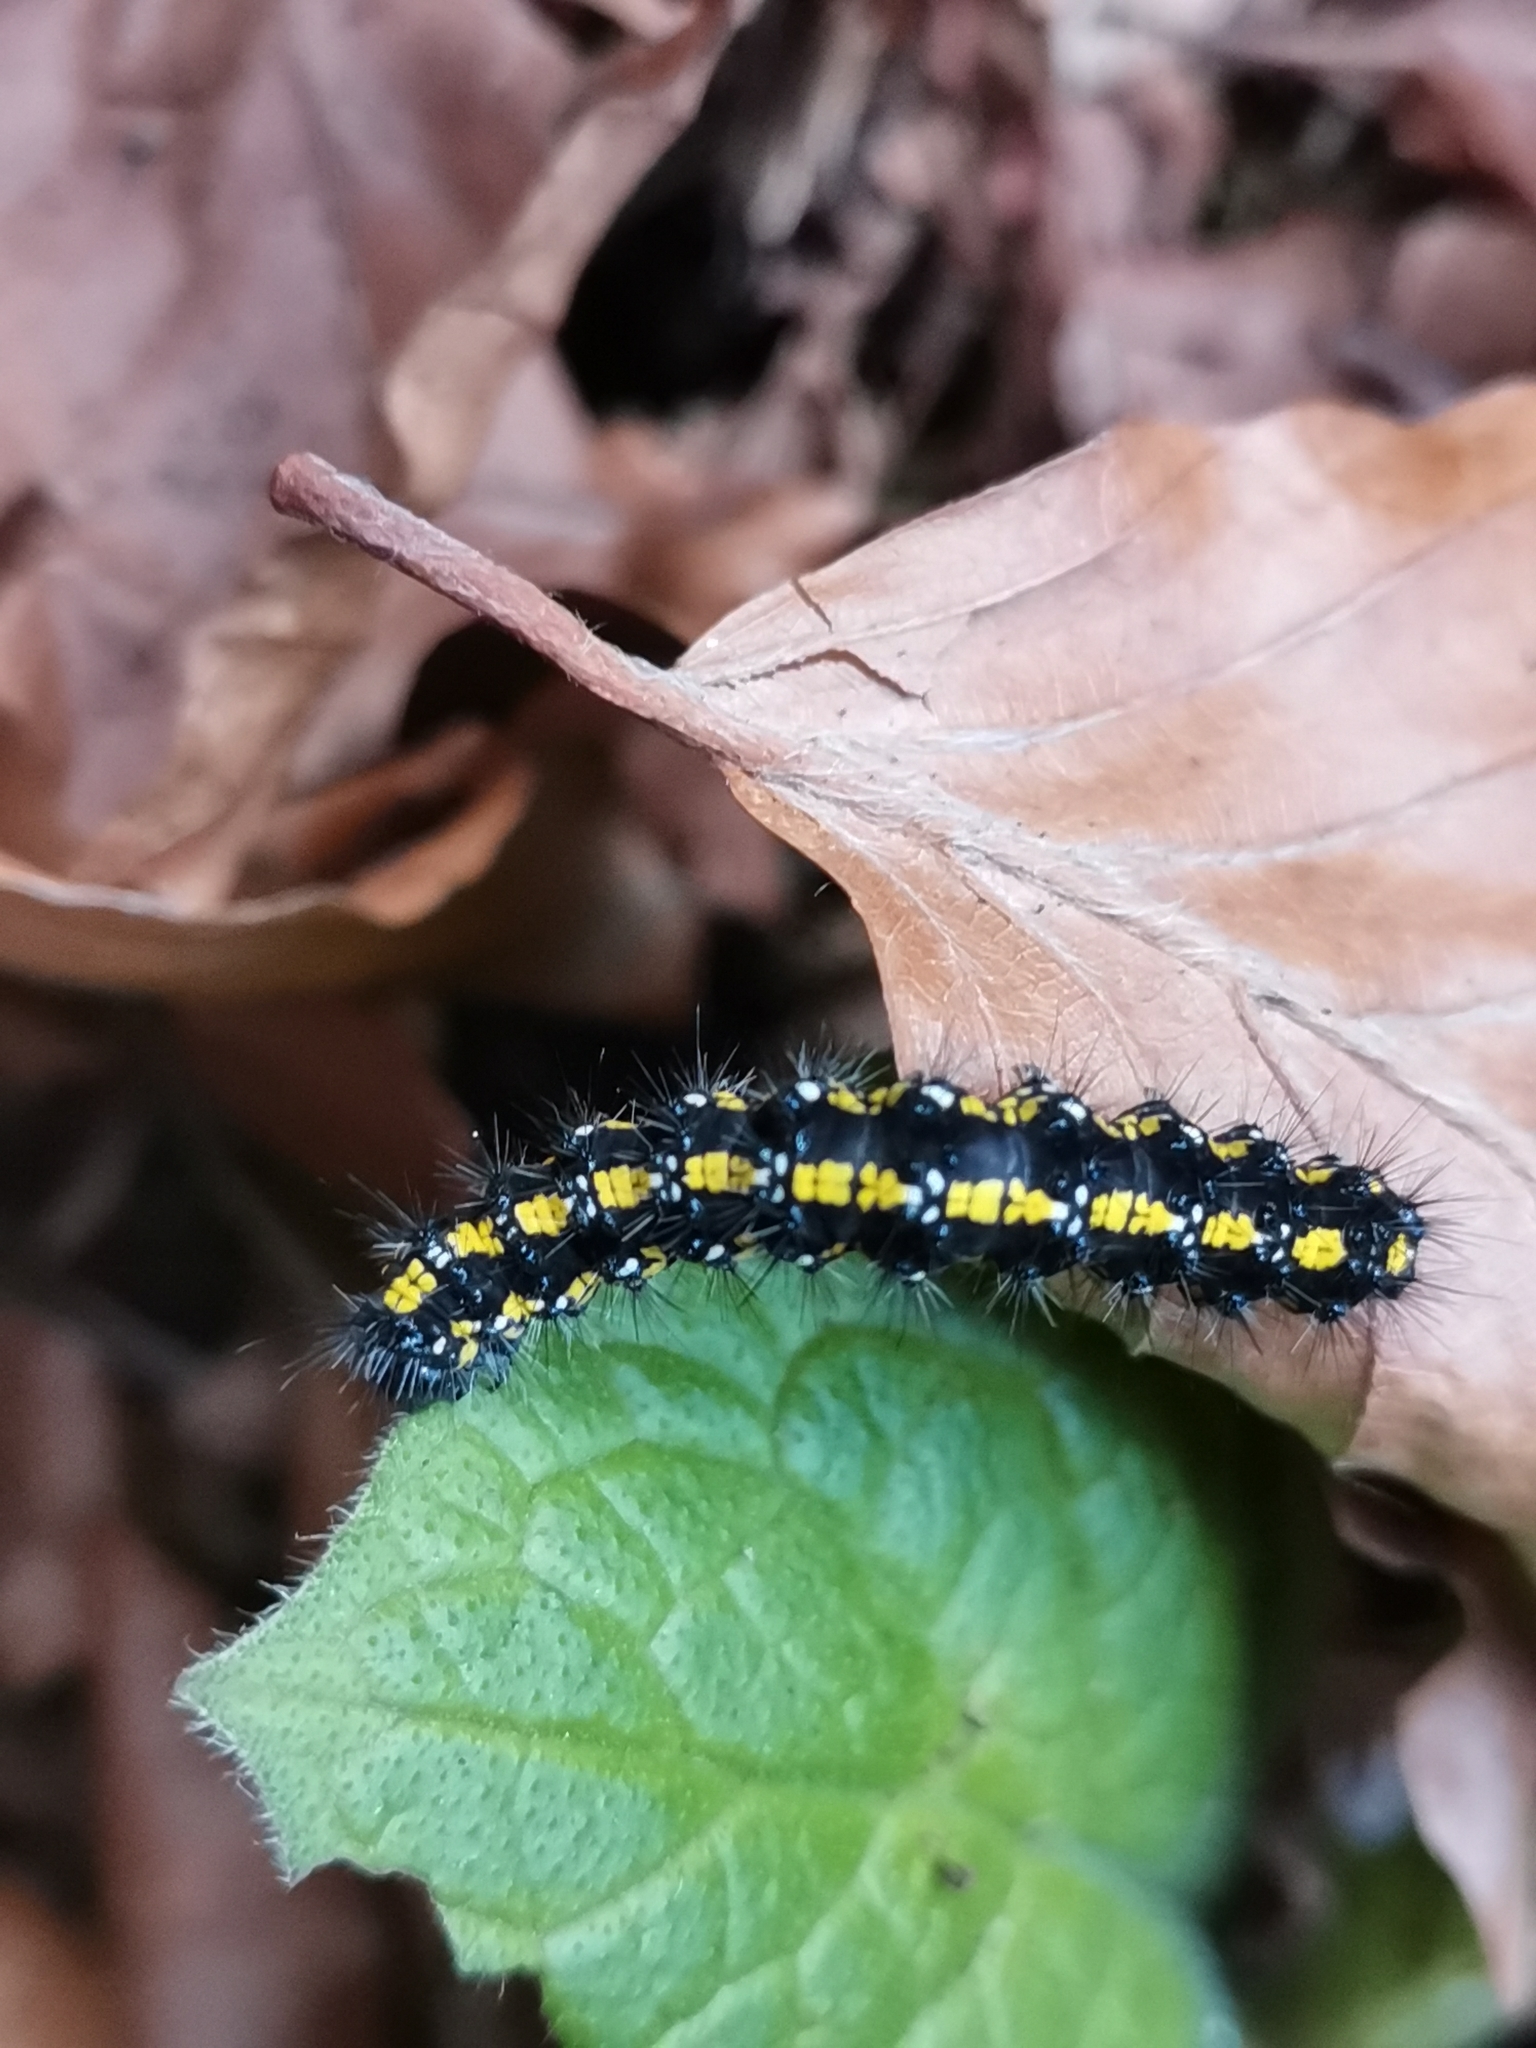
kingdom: Animalia
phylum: Arthropoda
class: Insecta
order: Lepidoptera
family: Erebidae
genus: Callimorpha
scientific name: Callimorpha dominula
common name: Scarlet tiger
